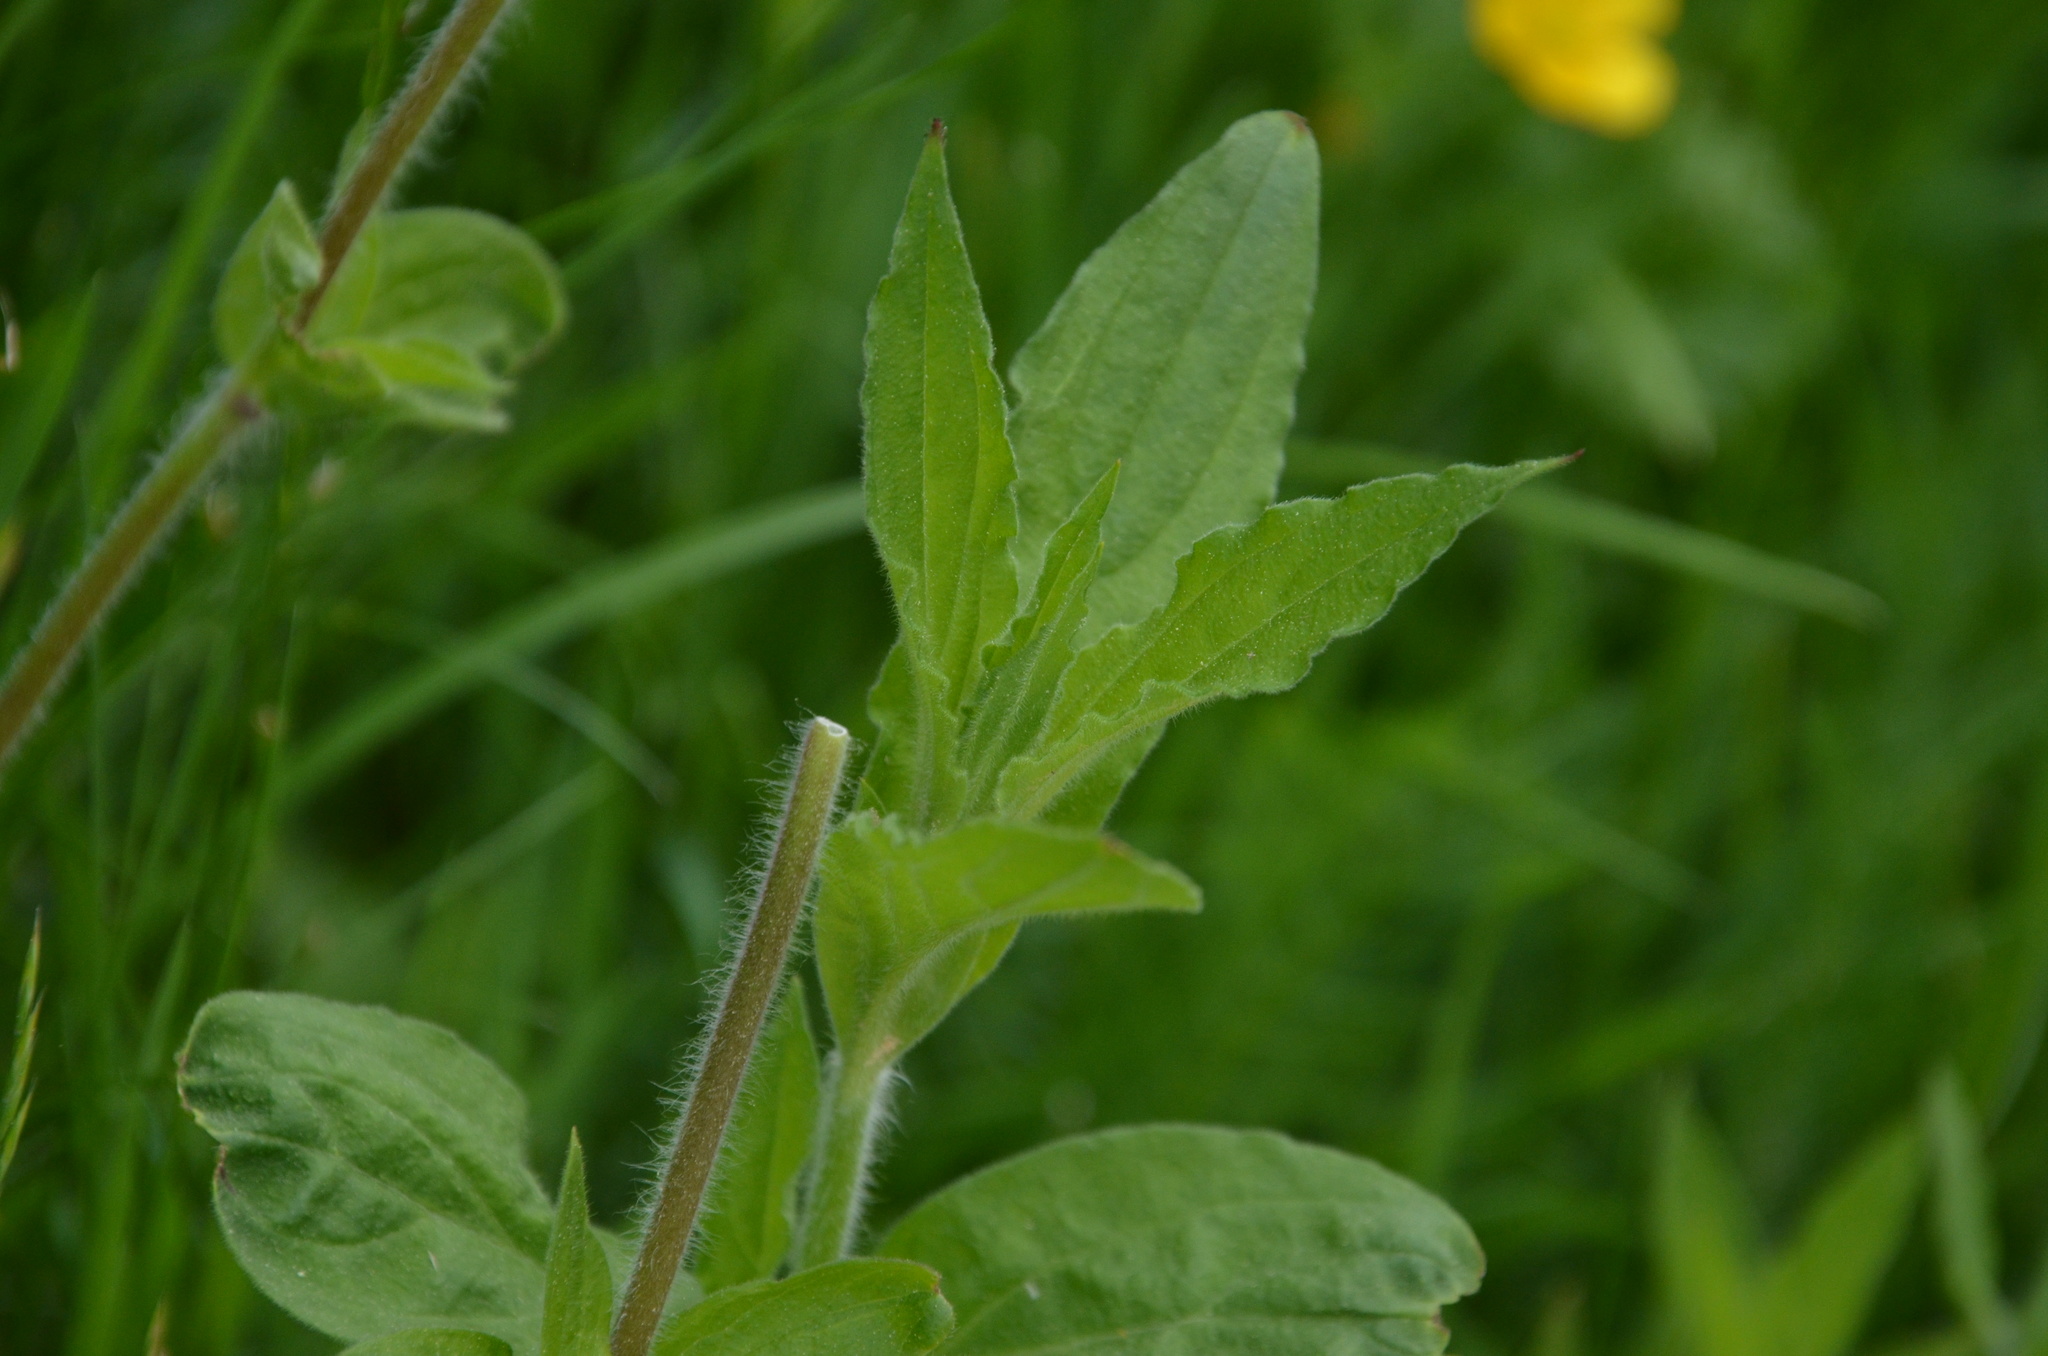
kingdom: Plantae
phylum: Tracheophyta
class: Magnoliopsida
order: Caryophyllales
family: Caryophyllaceae
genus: Silene
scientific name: Silene latifolia
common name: White campion
